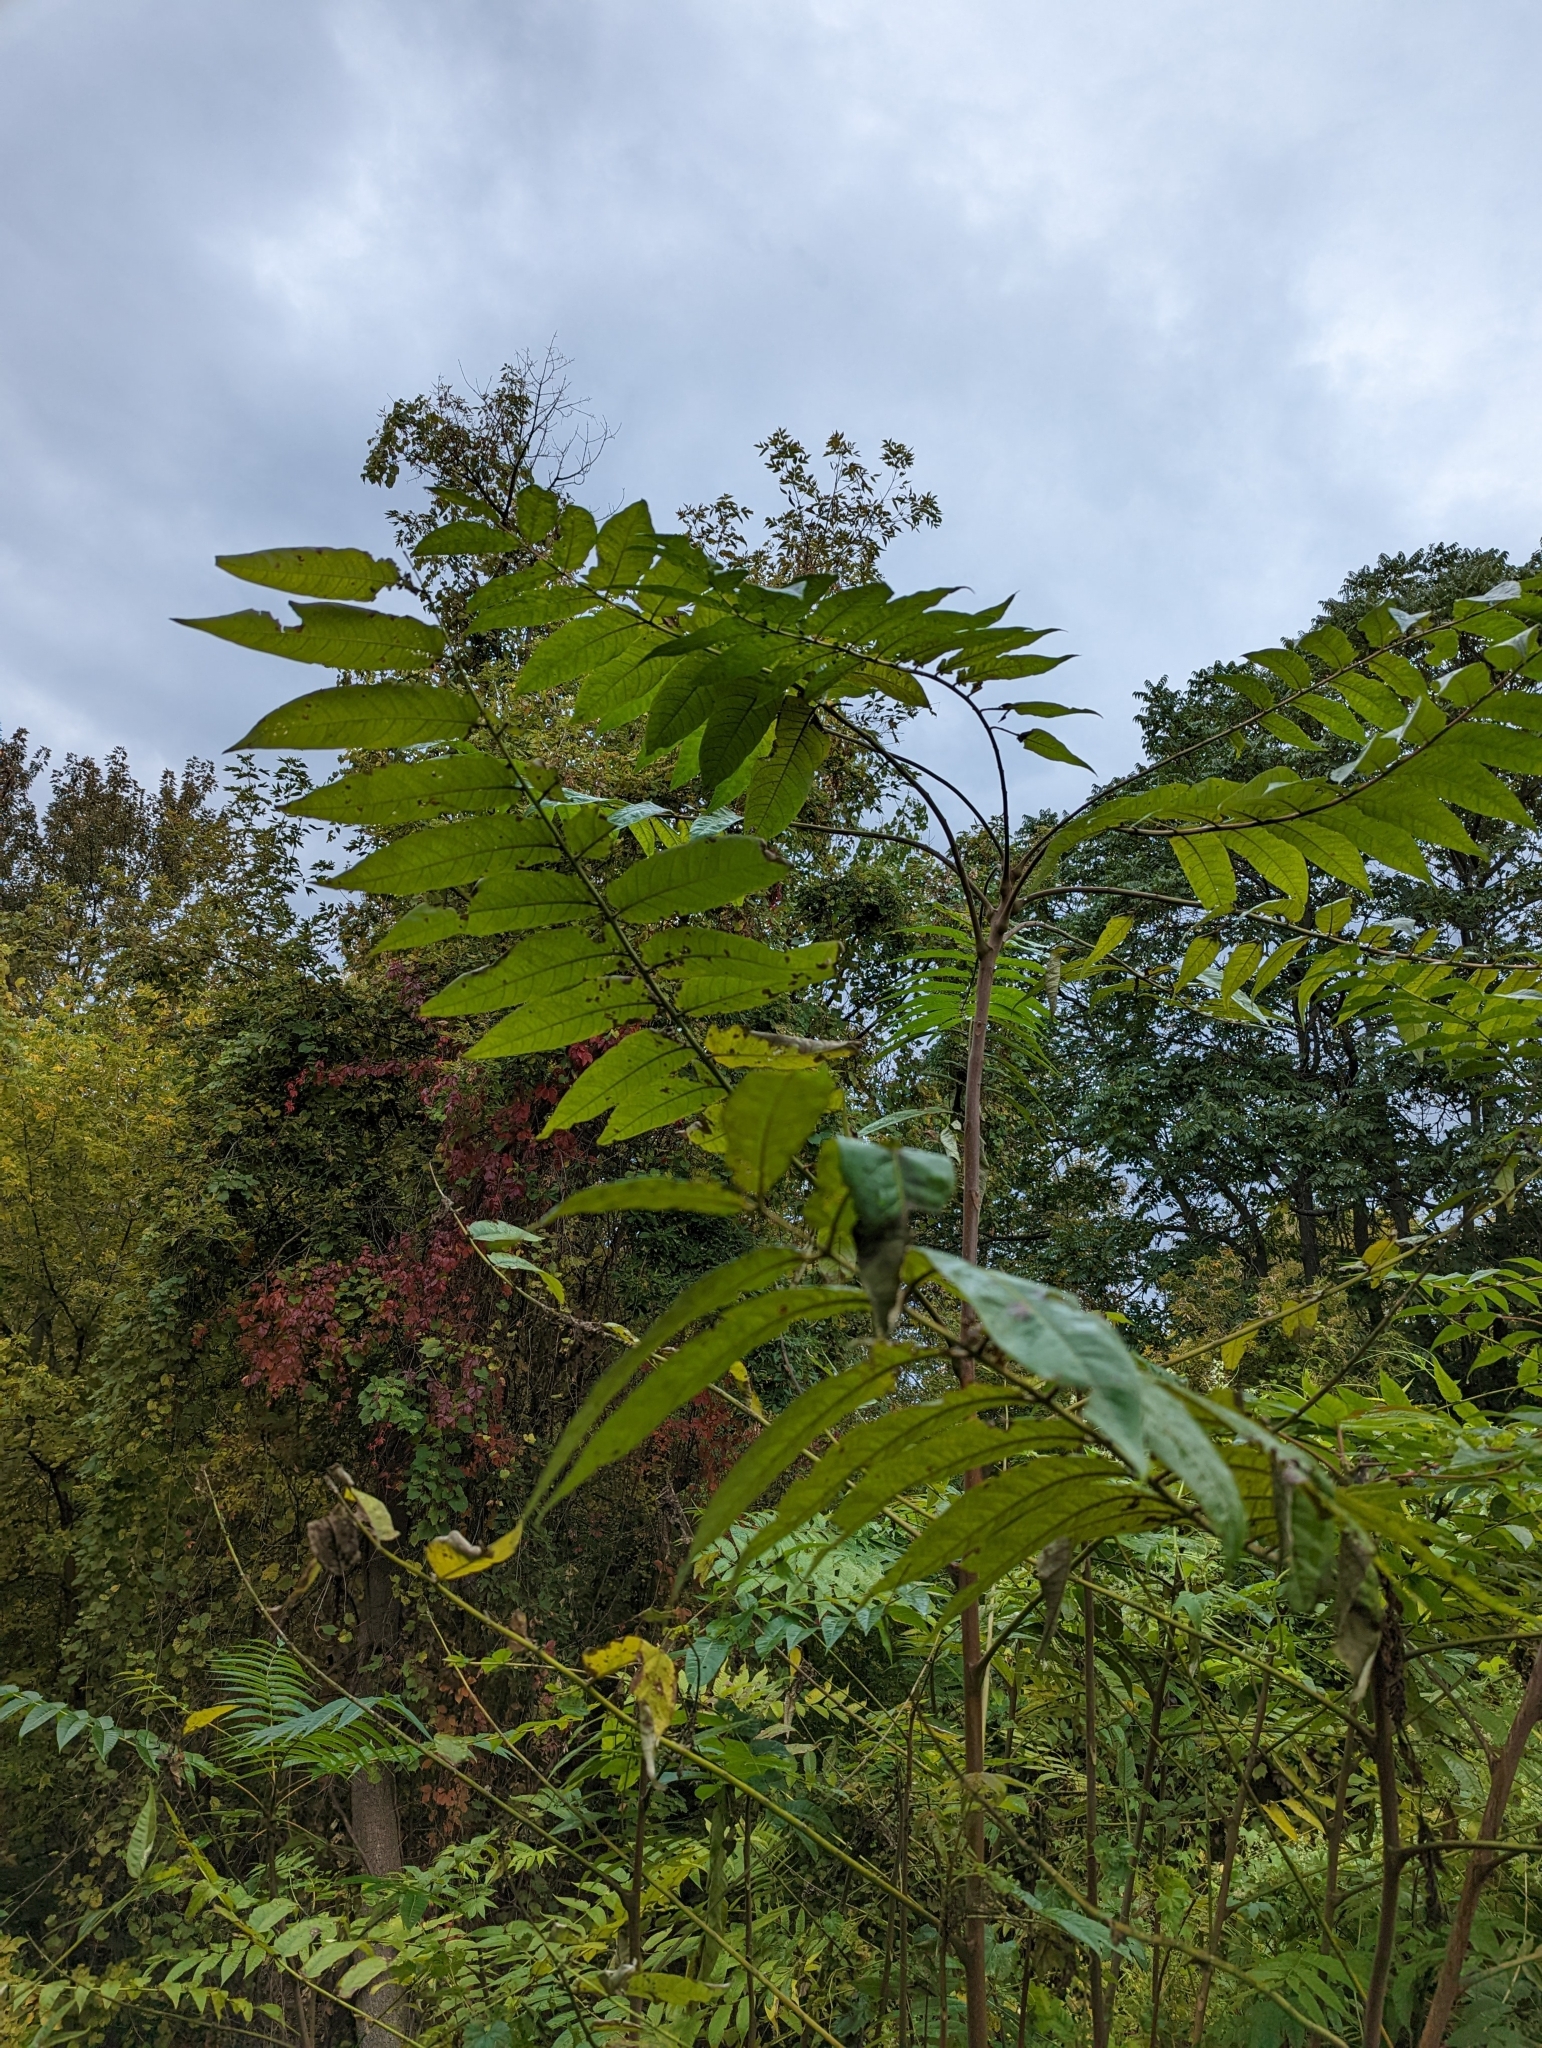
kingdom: Plantae
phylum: Tracheophyta
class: Magnoliopsida
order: Sapindales
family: Simaroubaceae
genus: Ailanthus
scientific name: Ailanthus altissima
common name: Tree-of-heaven
